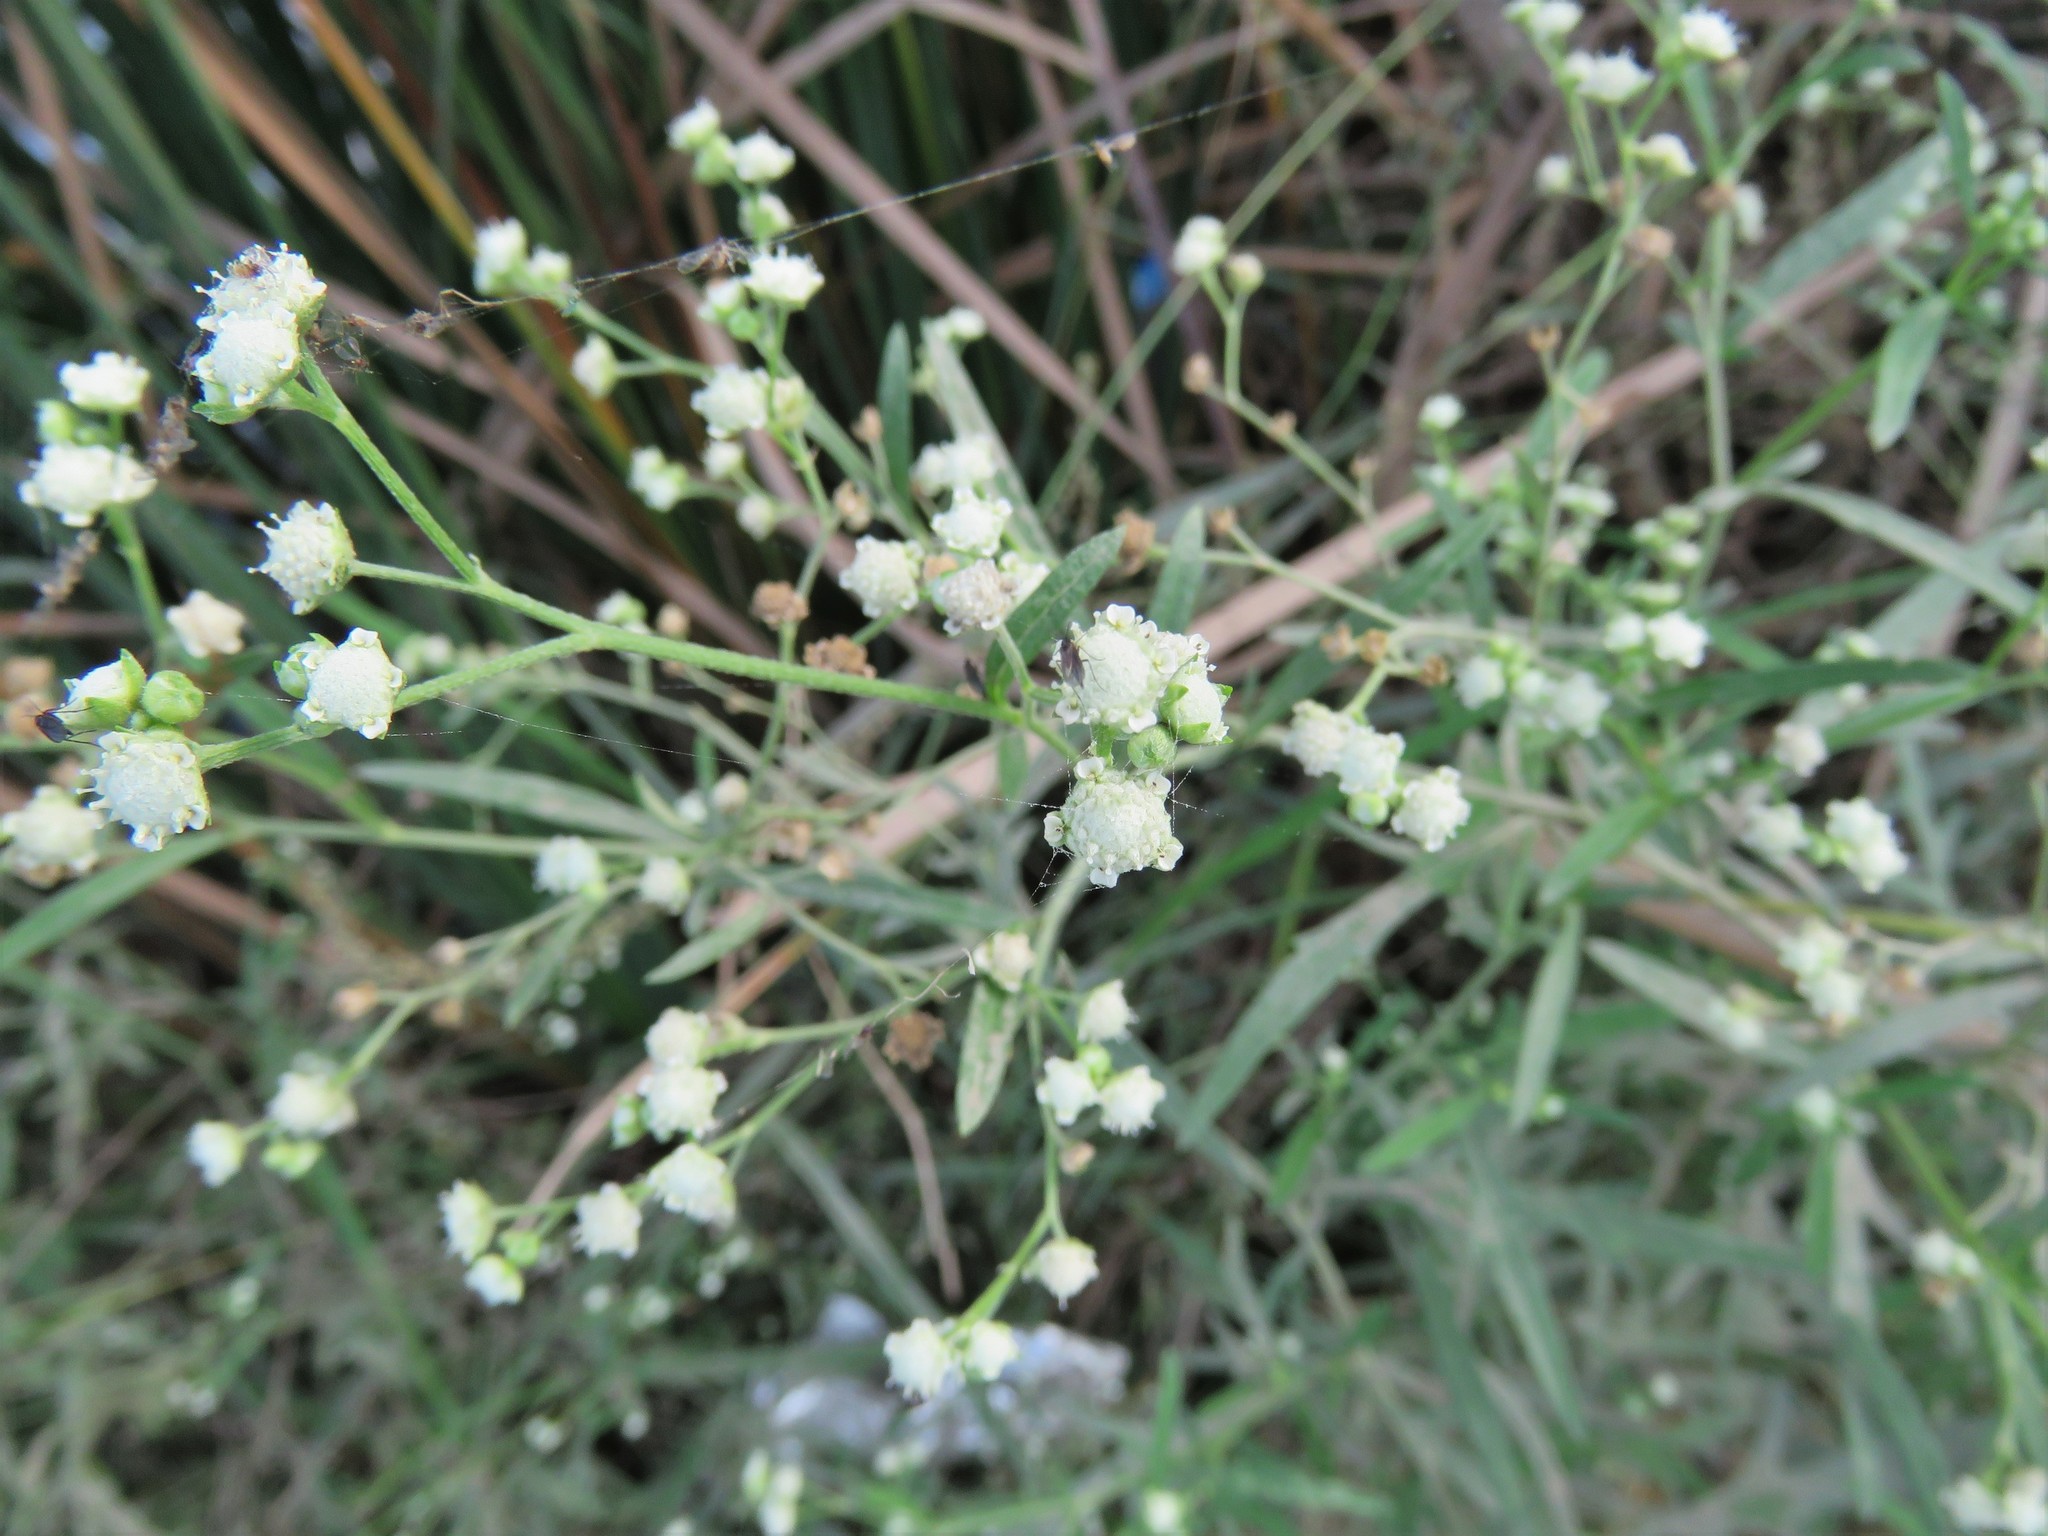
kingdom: Plantae
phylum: Tracheophyta
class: Magnoliopsida
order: Asterales
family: Asteraceae
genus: Parthenium
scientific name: Parthenium hysterophorus
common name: Santa maria feverfew
